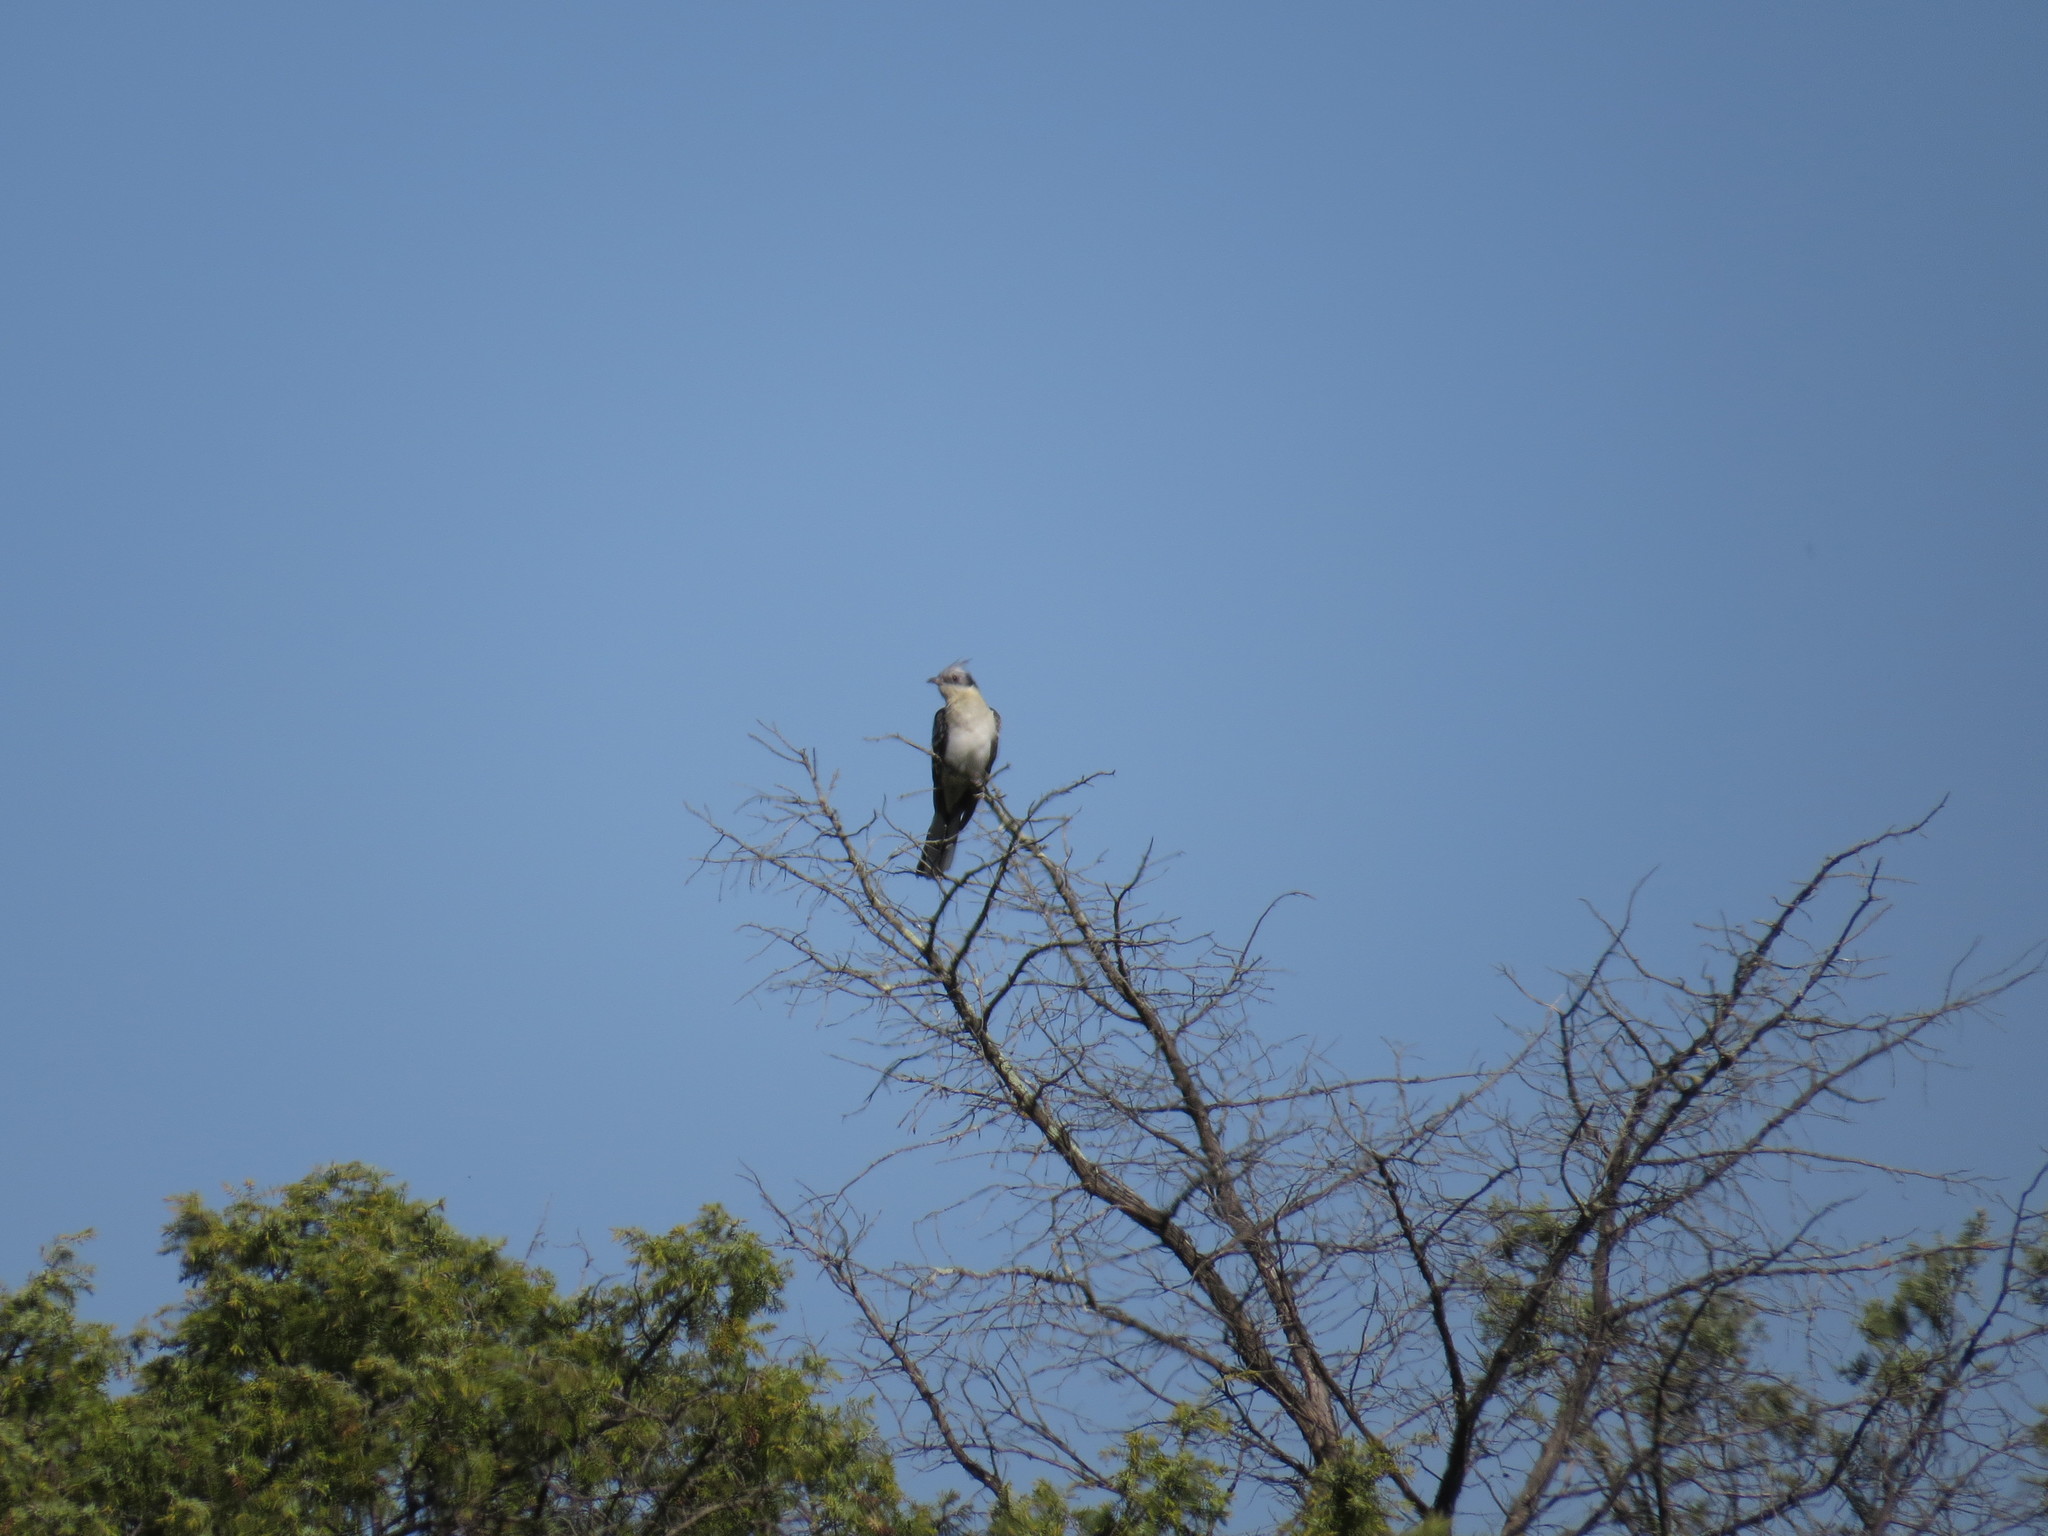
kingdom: Animalia
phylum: Chordata
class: Aves
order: Cuculiformes
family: Cuculidae
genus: Clamator
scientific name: Clamator glandarius
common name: Great spotted cuckoo
